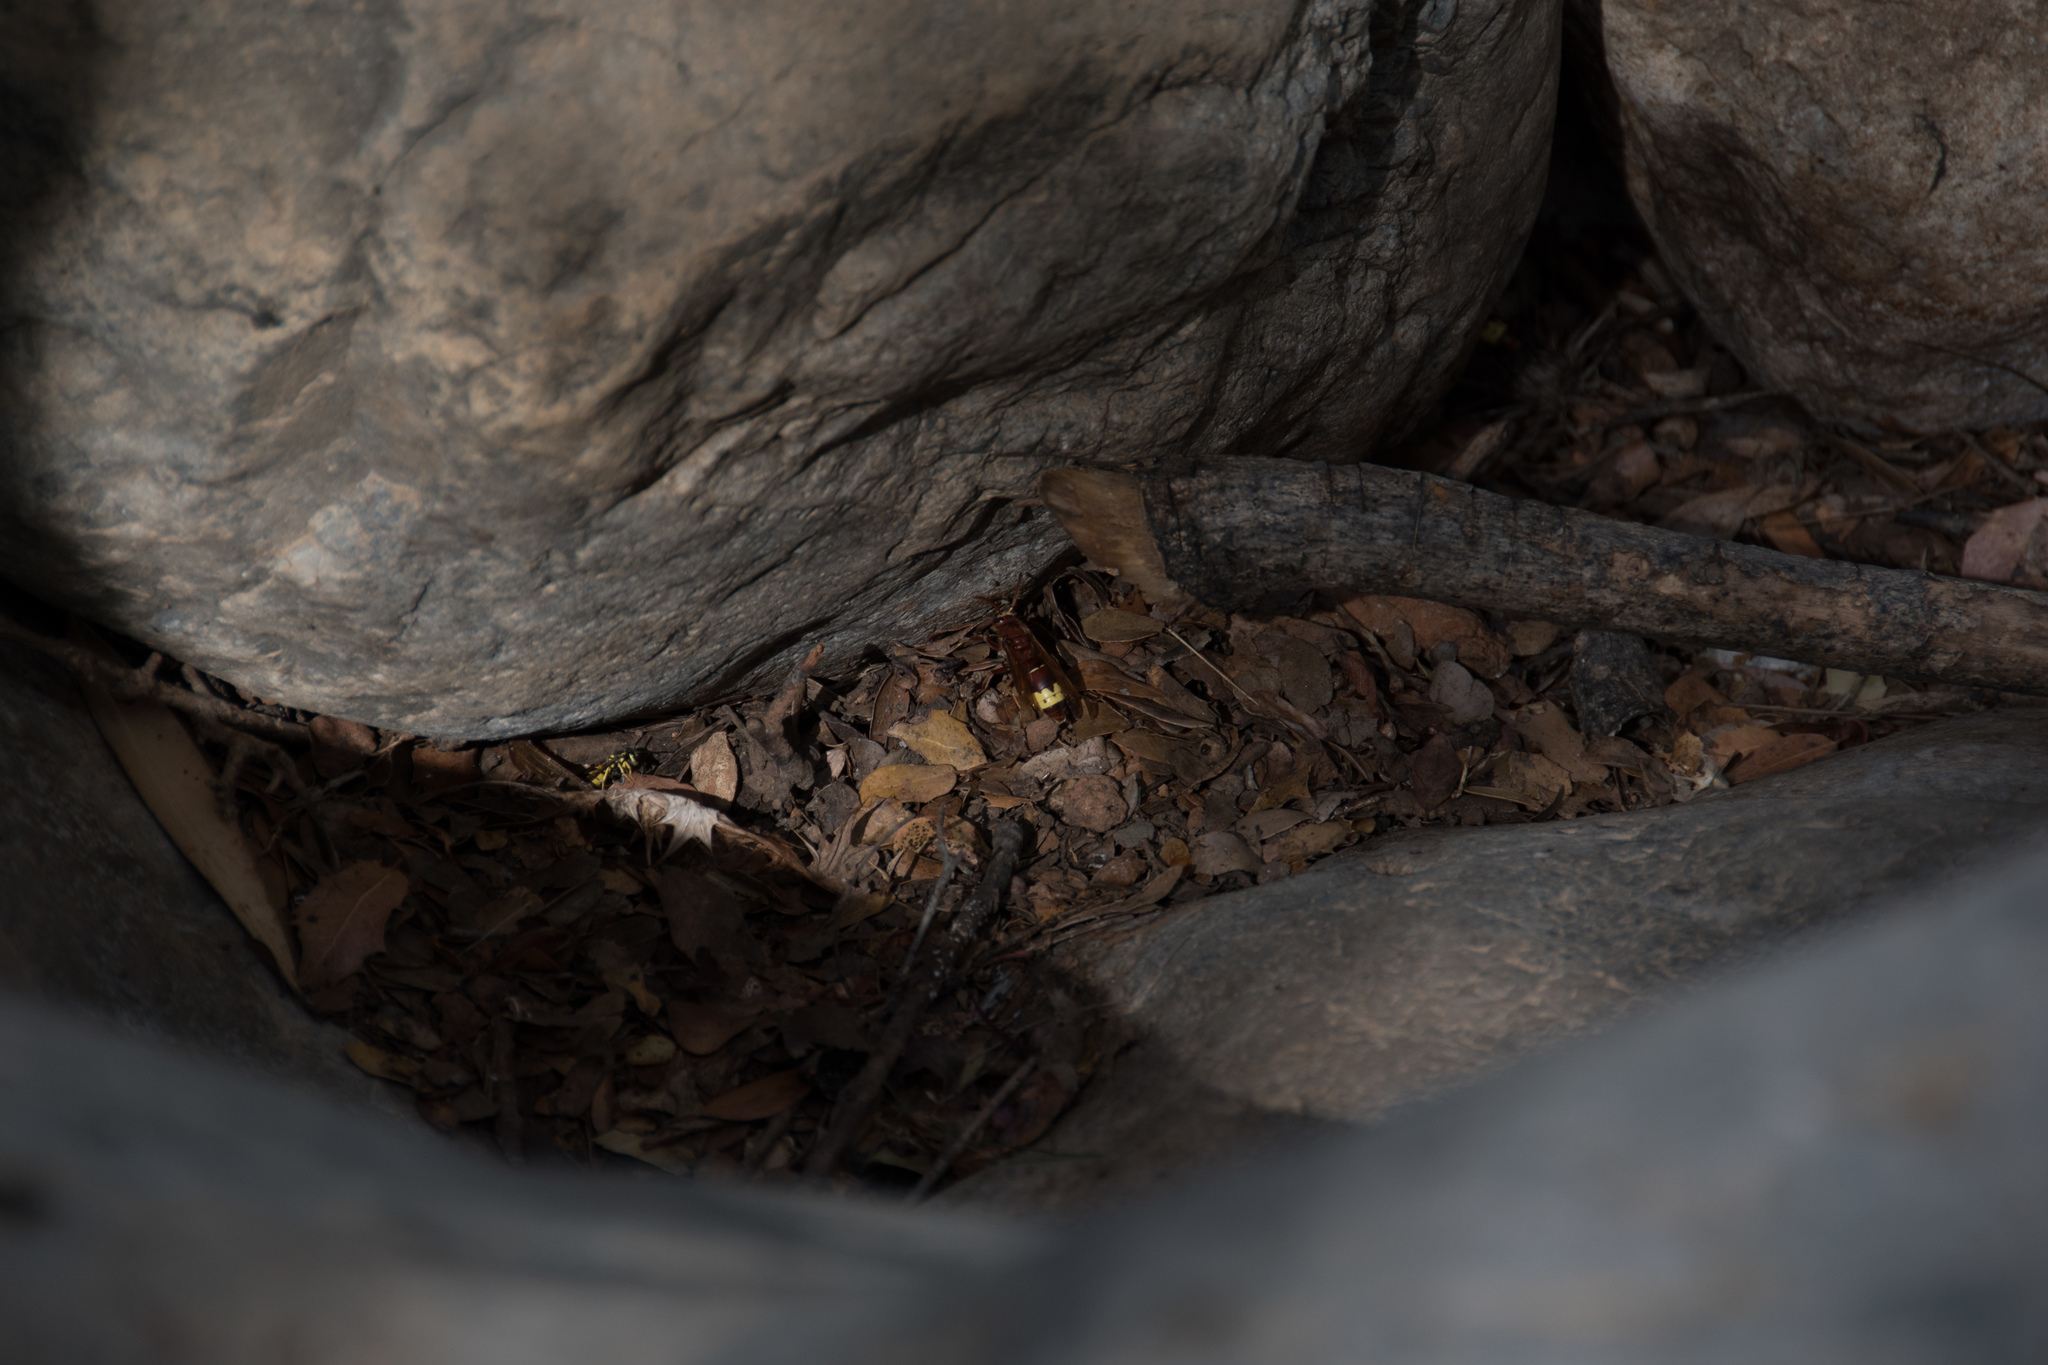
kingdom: Animalia
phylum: Arthropoda
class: Insecta
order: Hymenoptera
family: Vespidae
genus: Vespa
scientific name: Vespa orientalis
